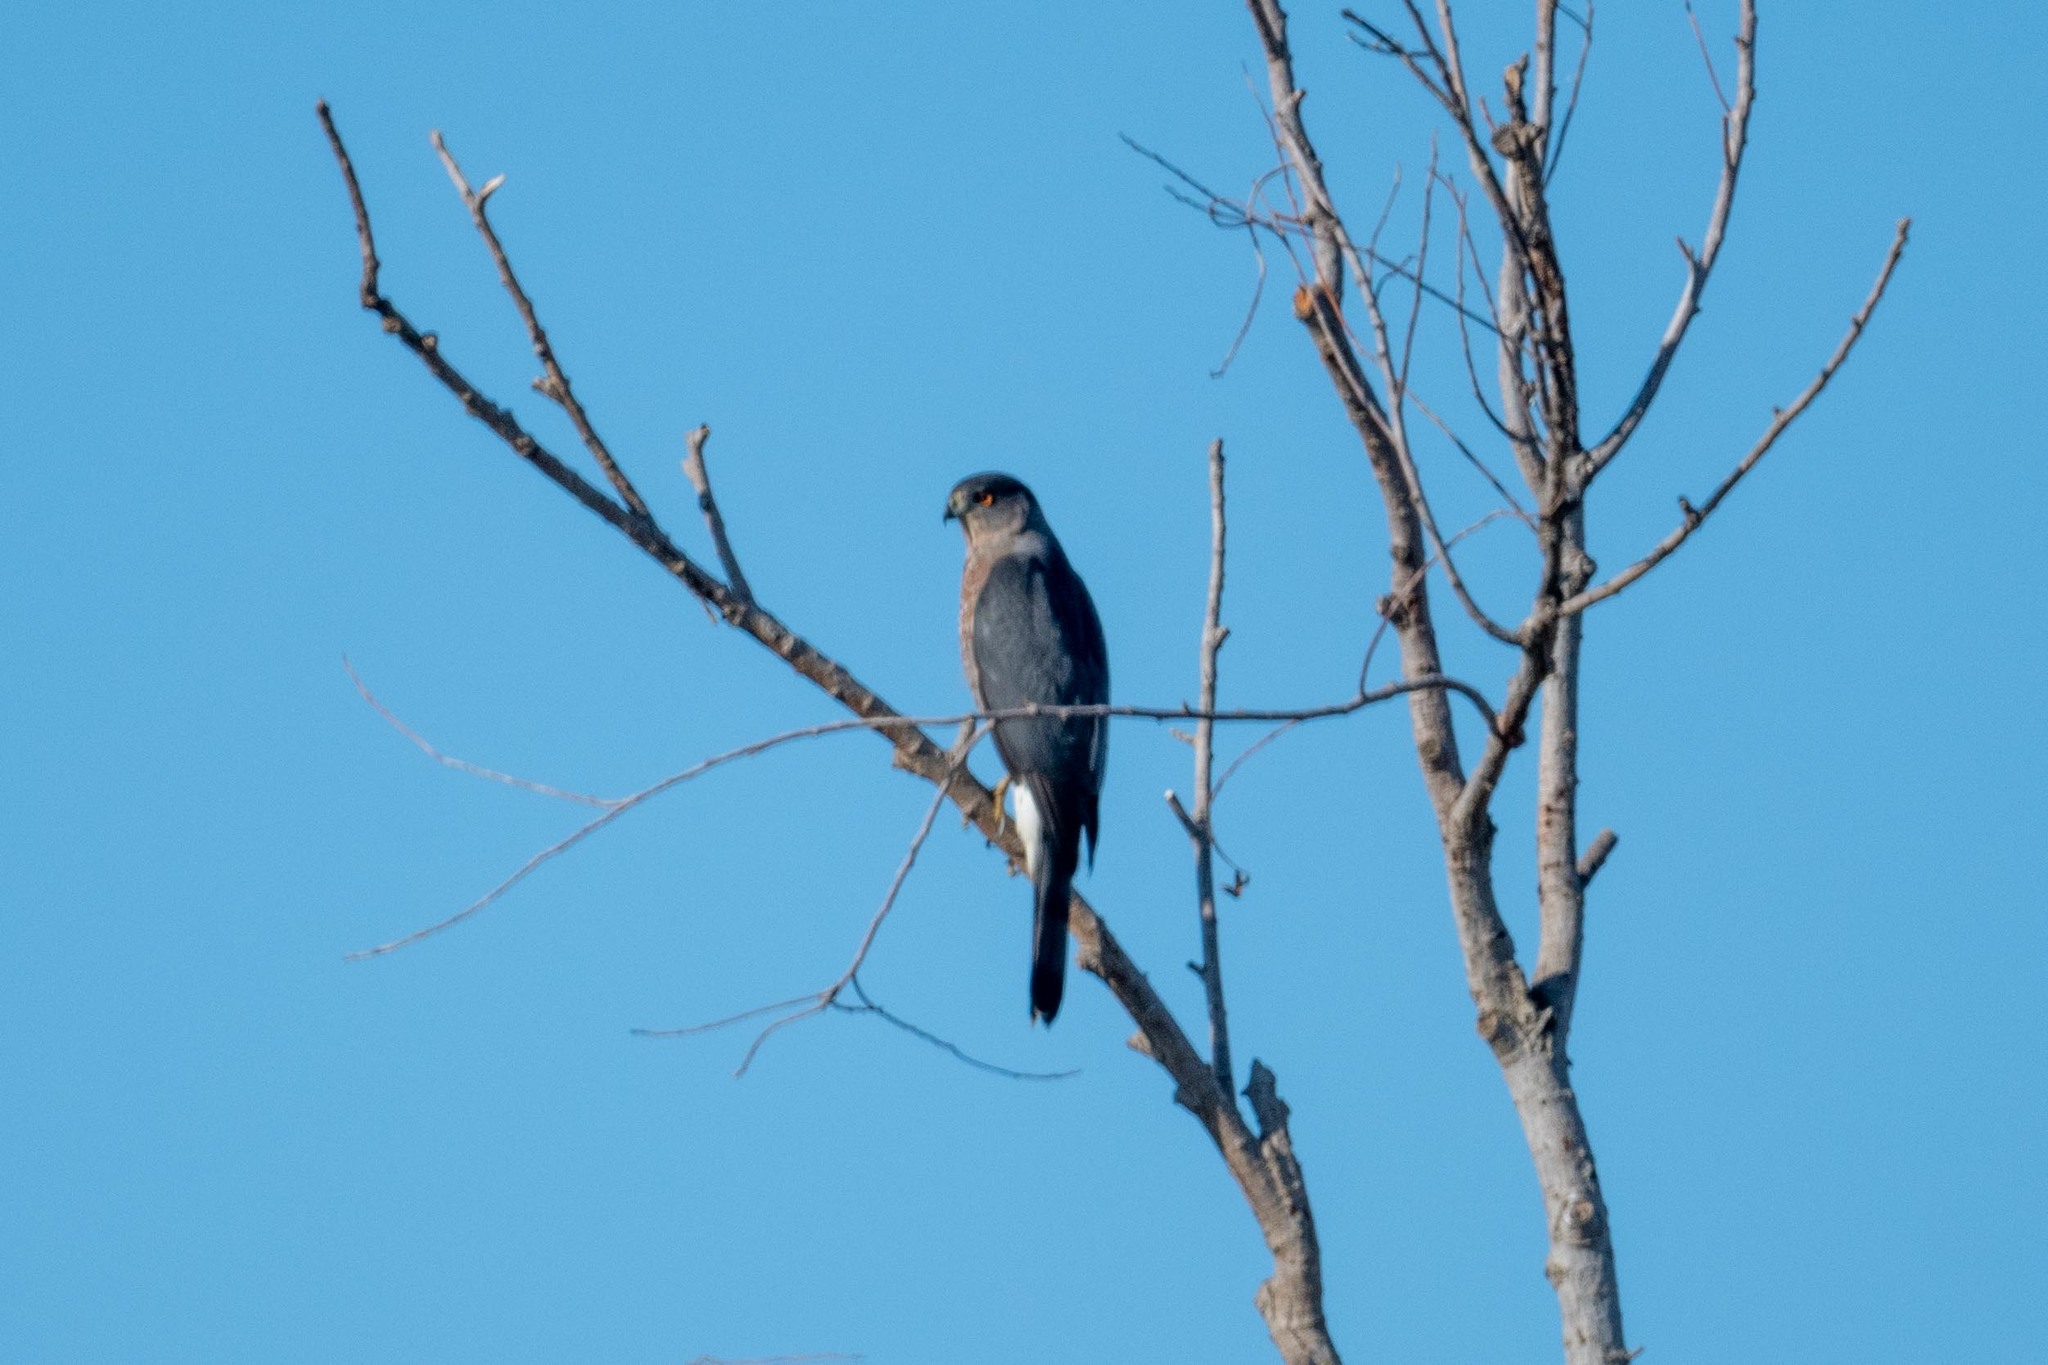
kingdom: Animalia
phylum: Chordata
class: Aves
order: Accipitriformes
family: Accipitridae
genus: Accipiter
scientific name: Accipiter cooperii
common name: Cooper's hawk
